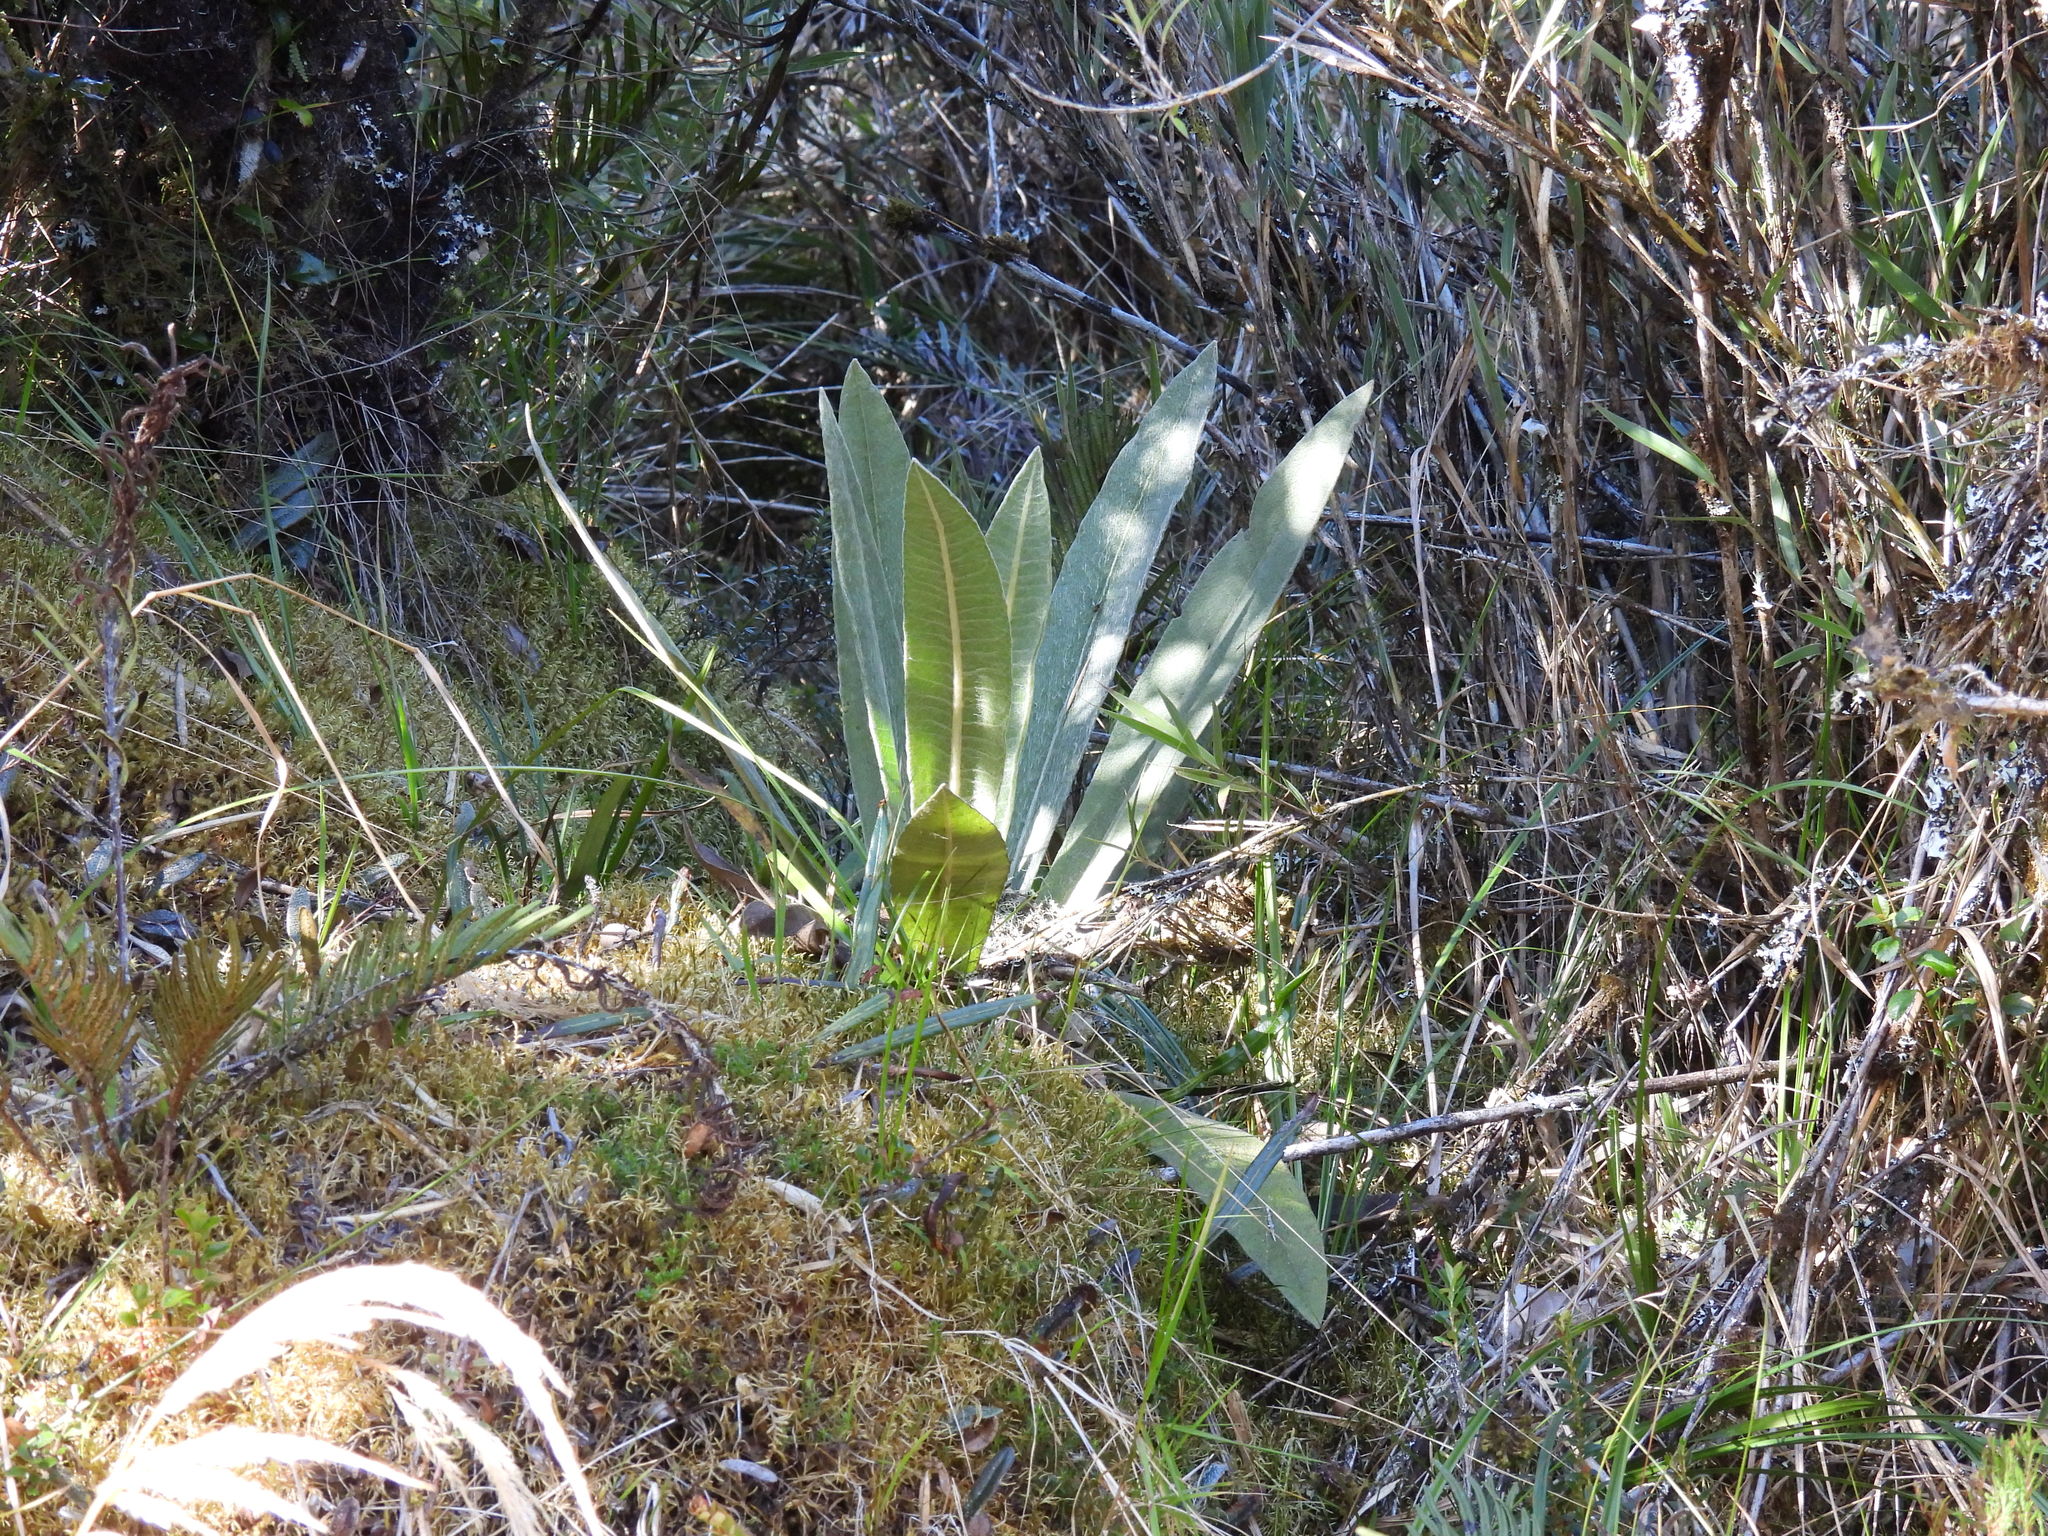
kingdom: Plantae
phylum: Tracheophyta
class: Magnoliopsida
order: Asterales
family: Asteraceae
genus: Espeletia
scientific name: Espeletia uribei
